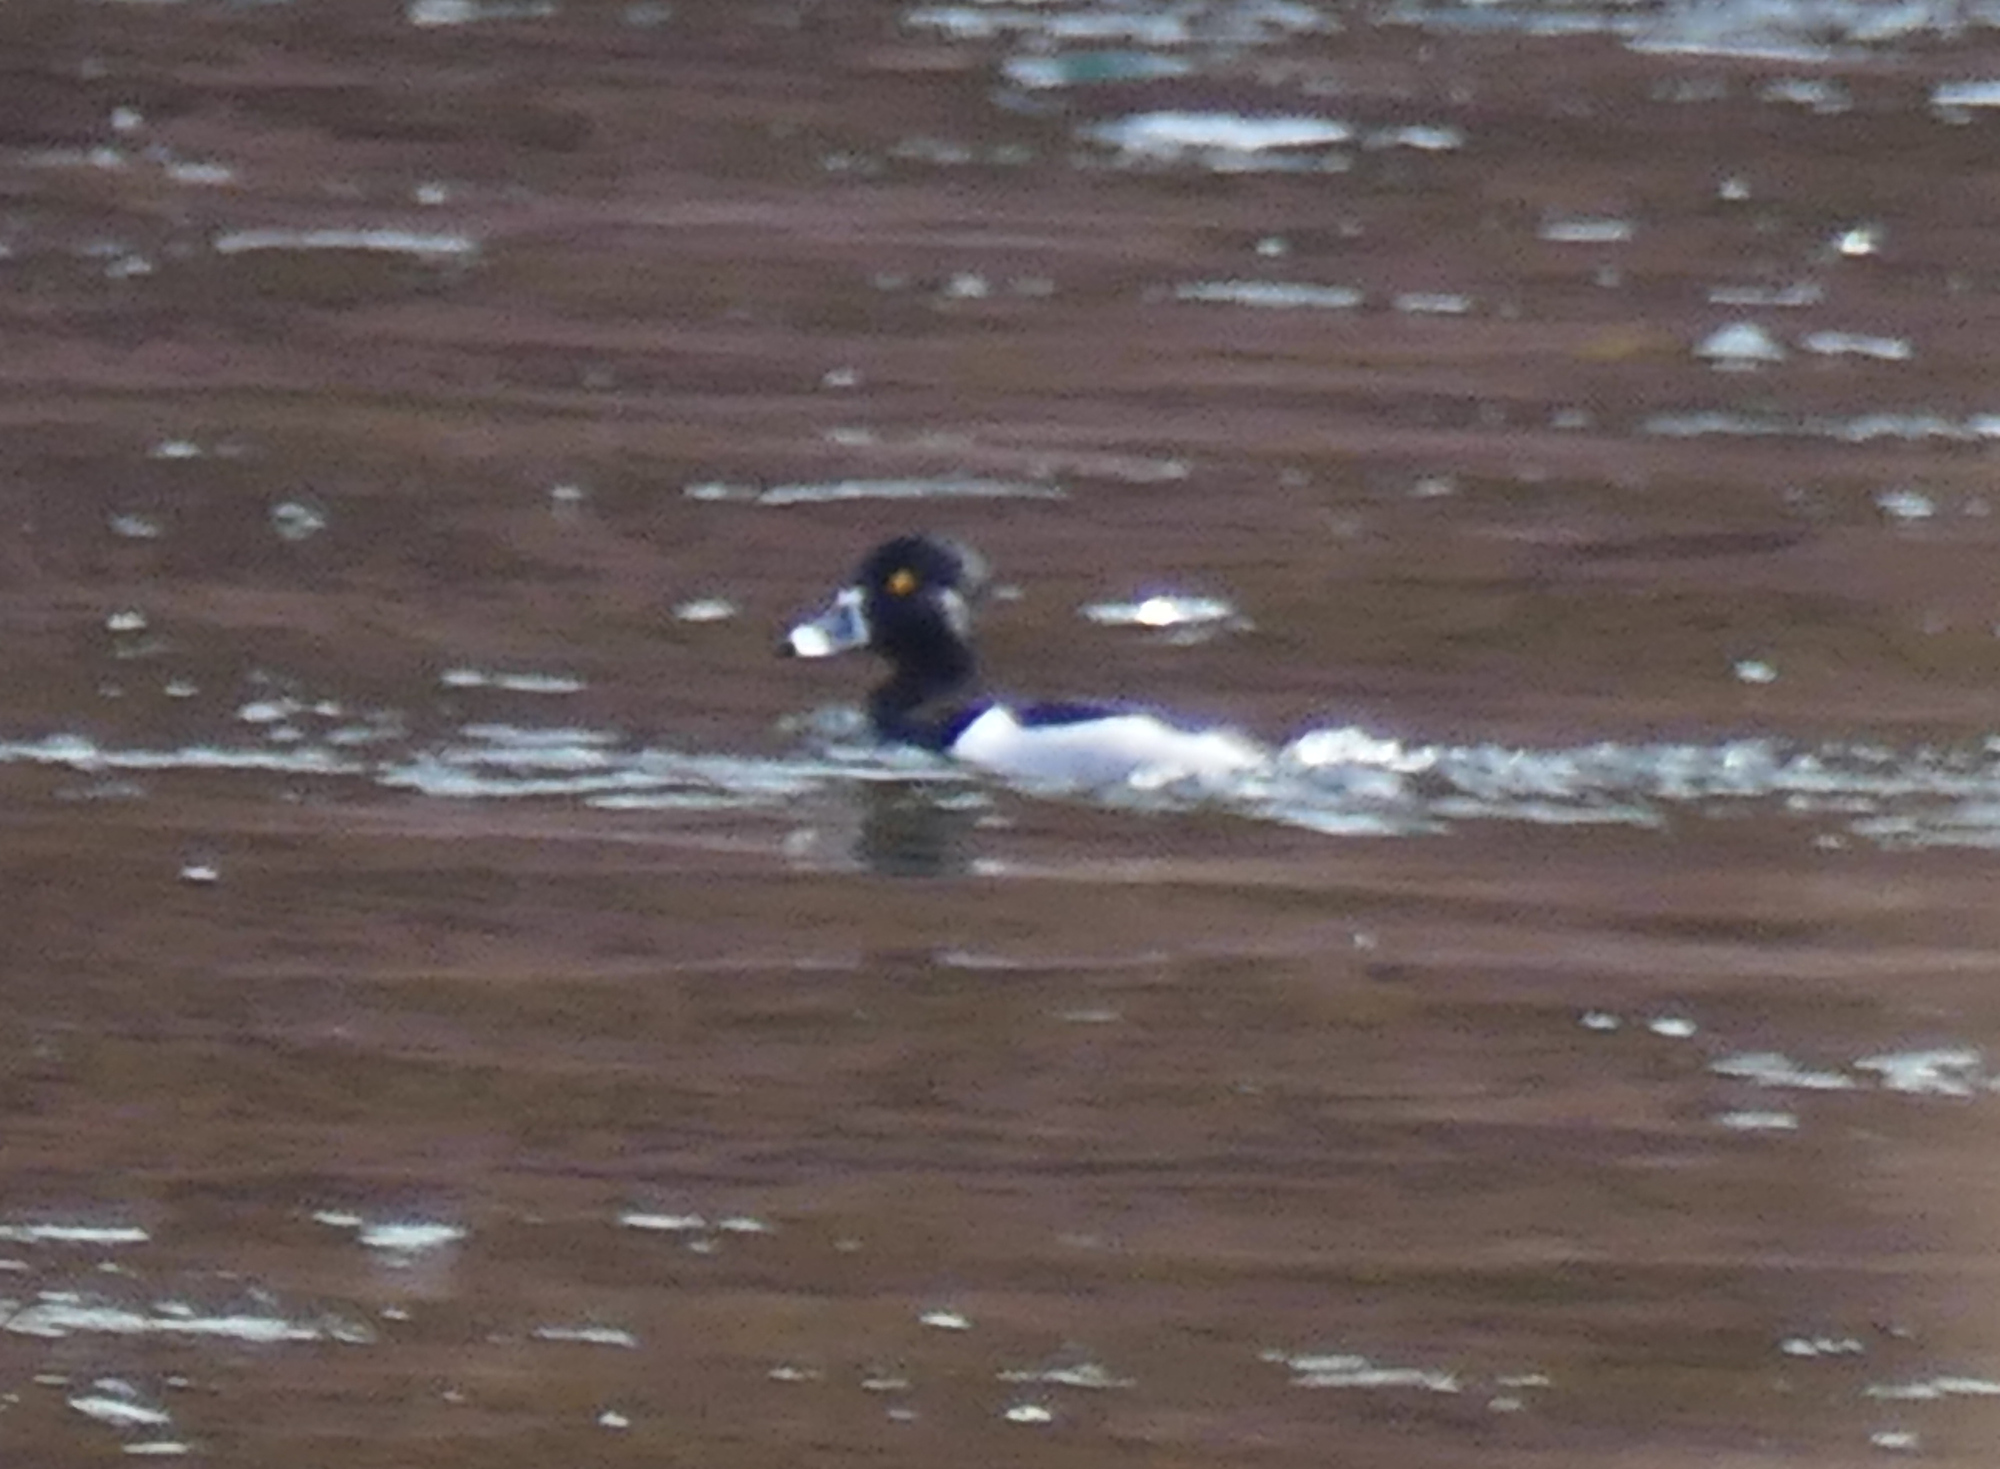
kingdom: Animalia
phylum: Chordata
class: Aves
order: Anseriformes
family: Anatidae
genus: Aythya
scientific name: Aythya collaris
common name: Ring-necked duck
